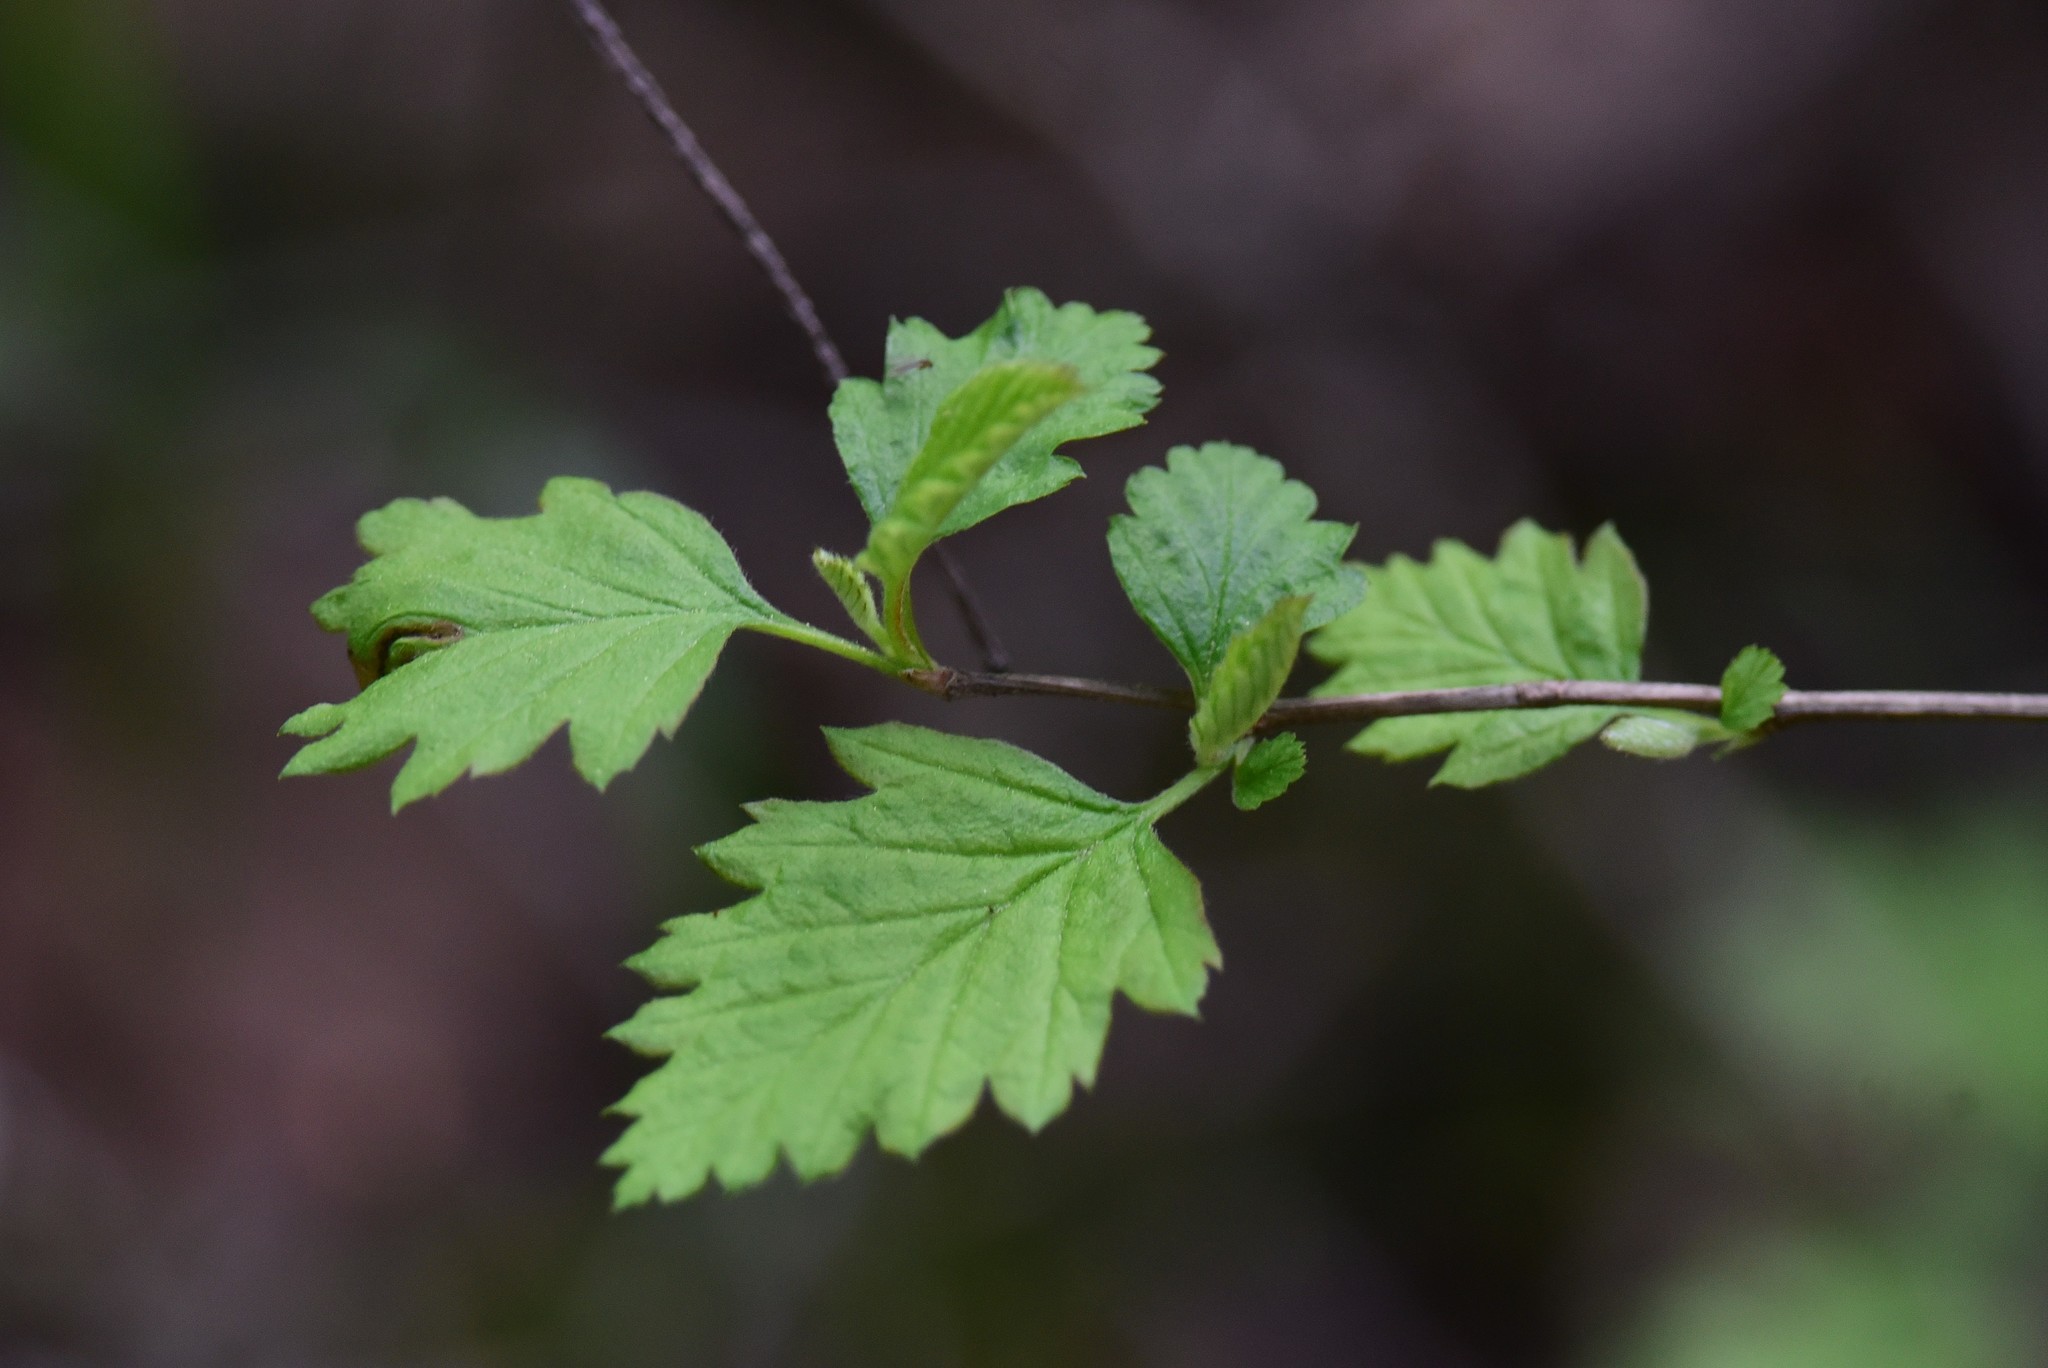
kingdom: Plantae
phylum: Tracheophyta
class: Magnoliopsida
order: Rosales
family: Rosaceae
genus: Holodiscus
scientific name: Holodiscus discolor
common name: Oceanspray
